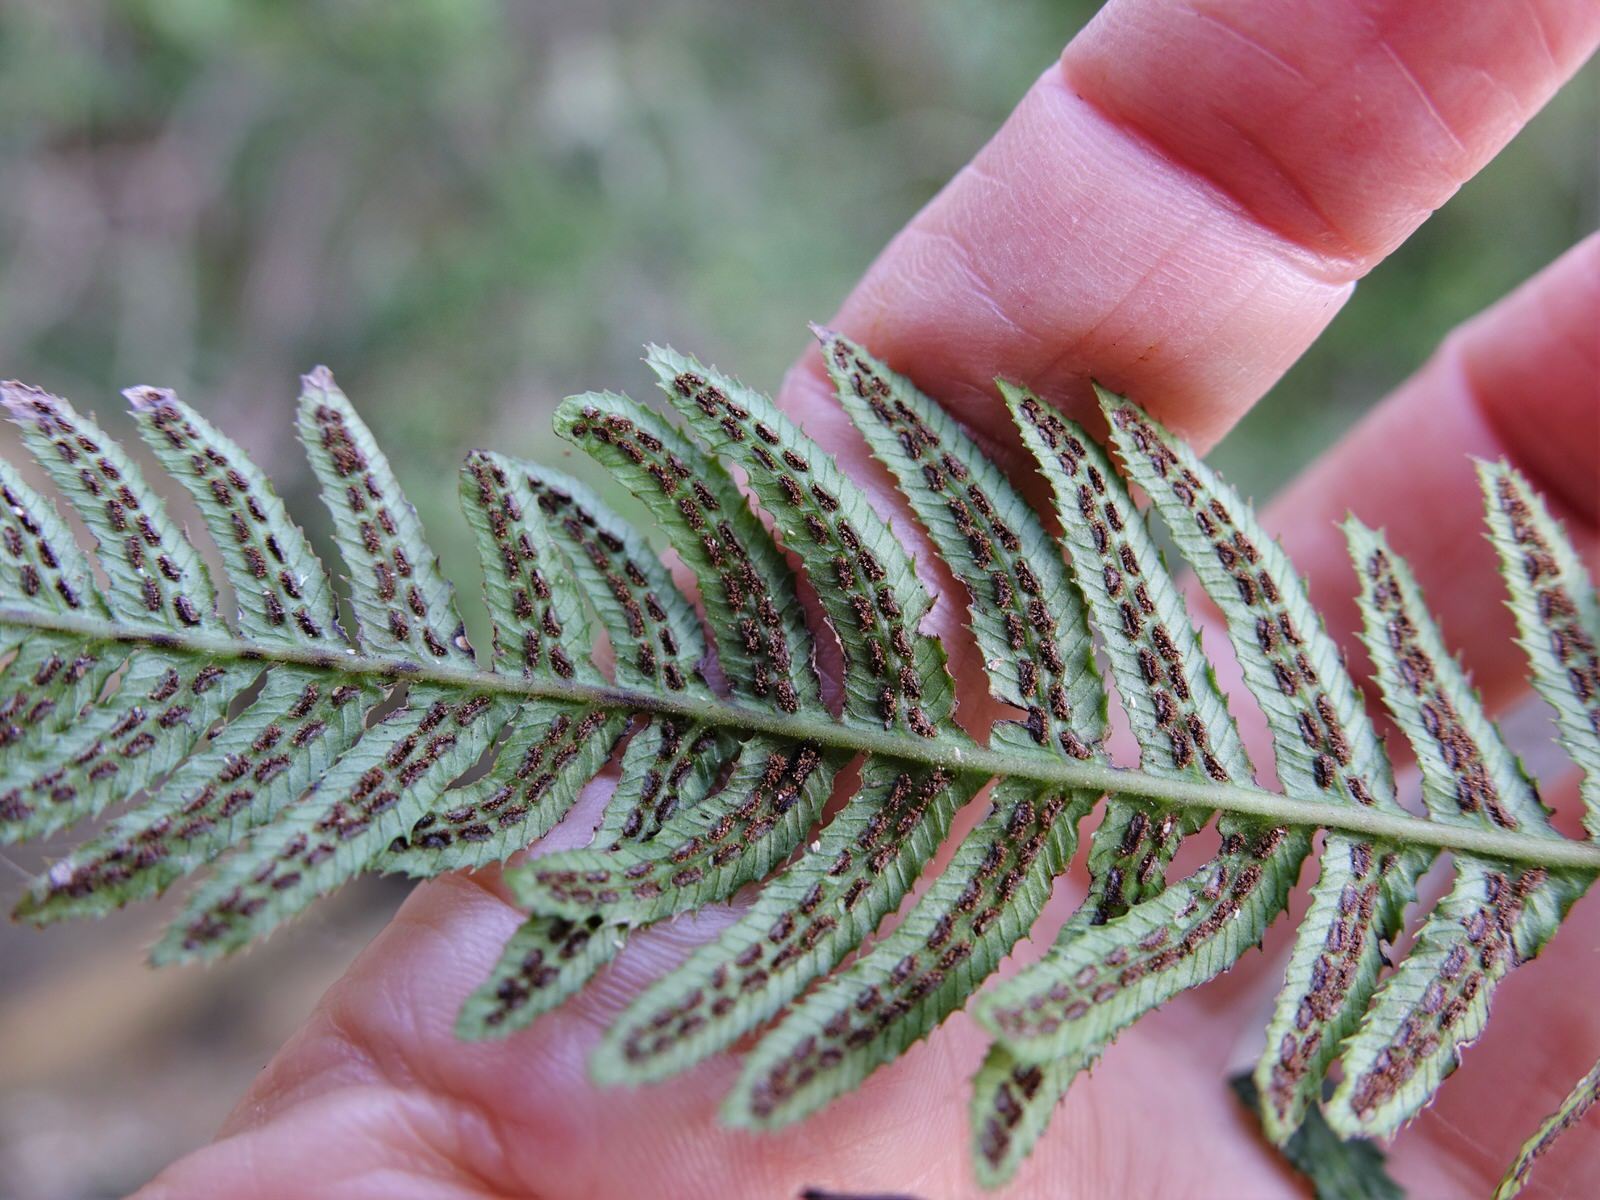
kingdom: Plantae
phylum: Tracheophyta
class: Polypodiopsida
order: Polypodiales
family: Blechnaceae
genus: Doodia
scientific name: Doodia australis
